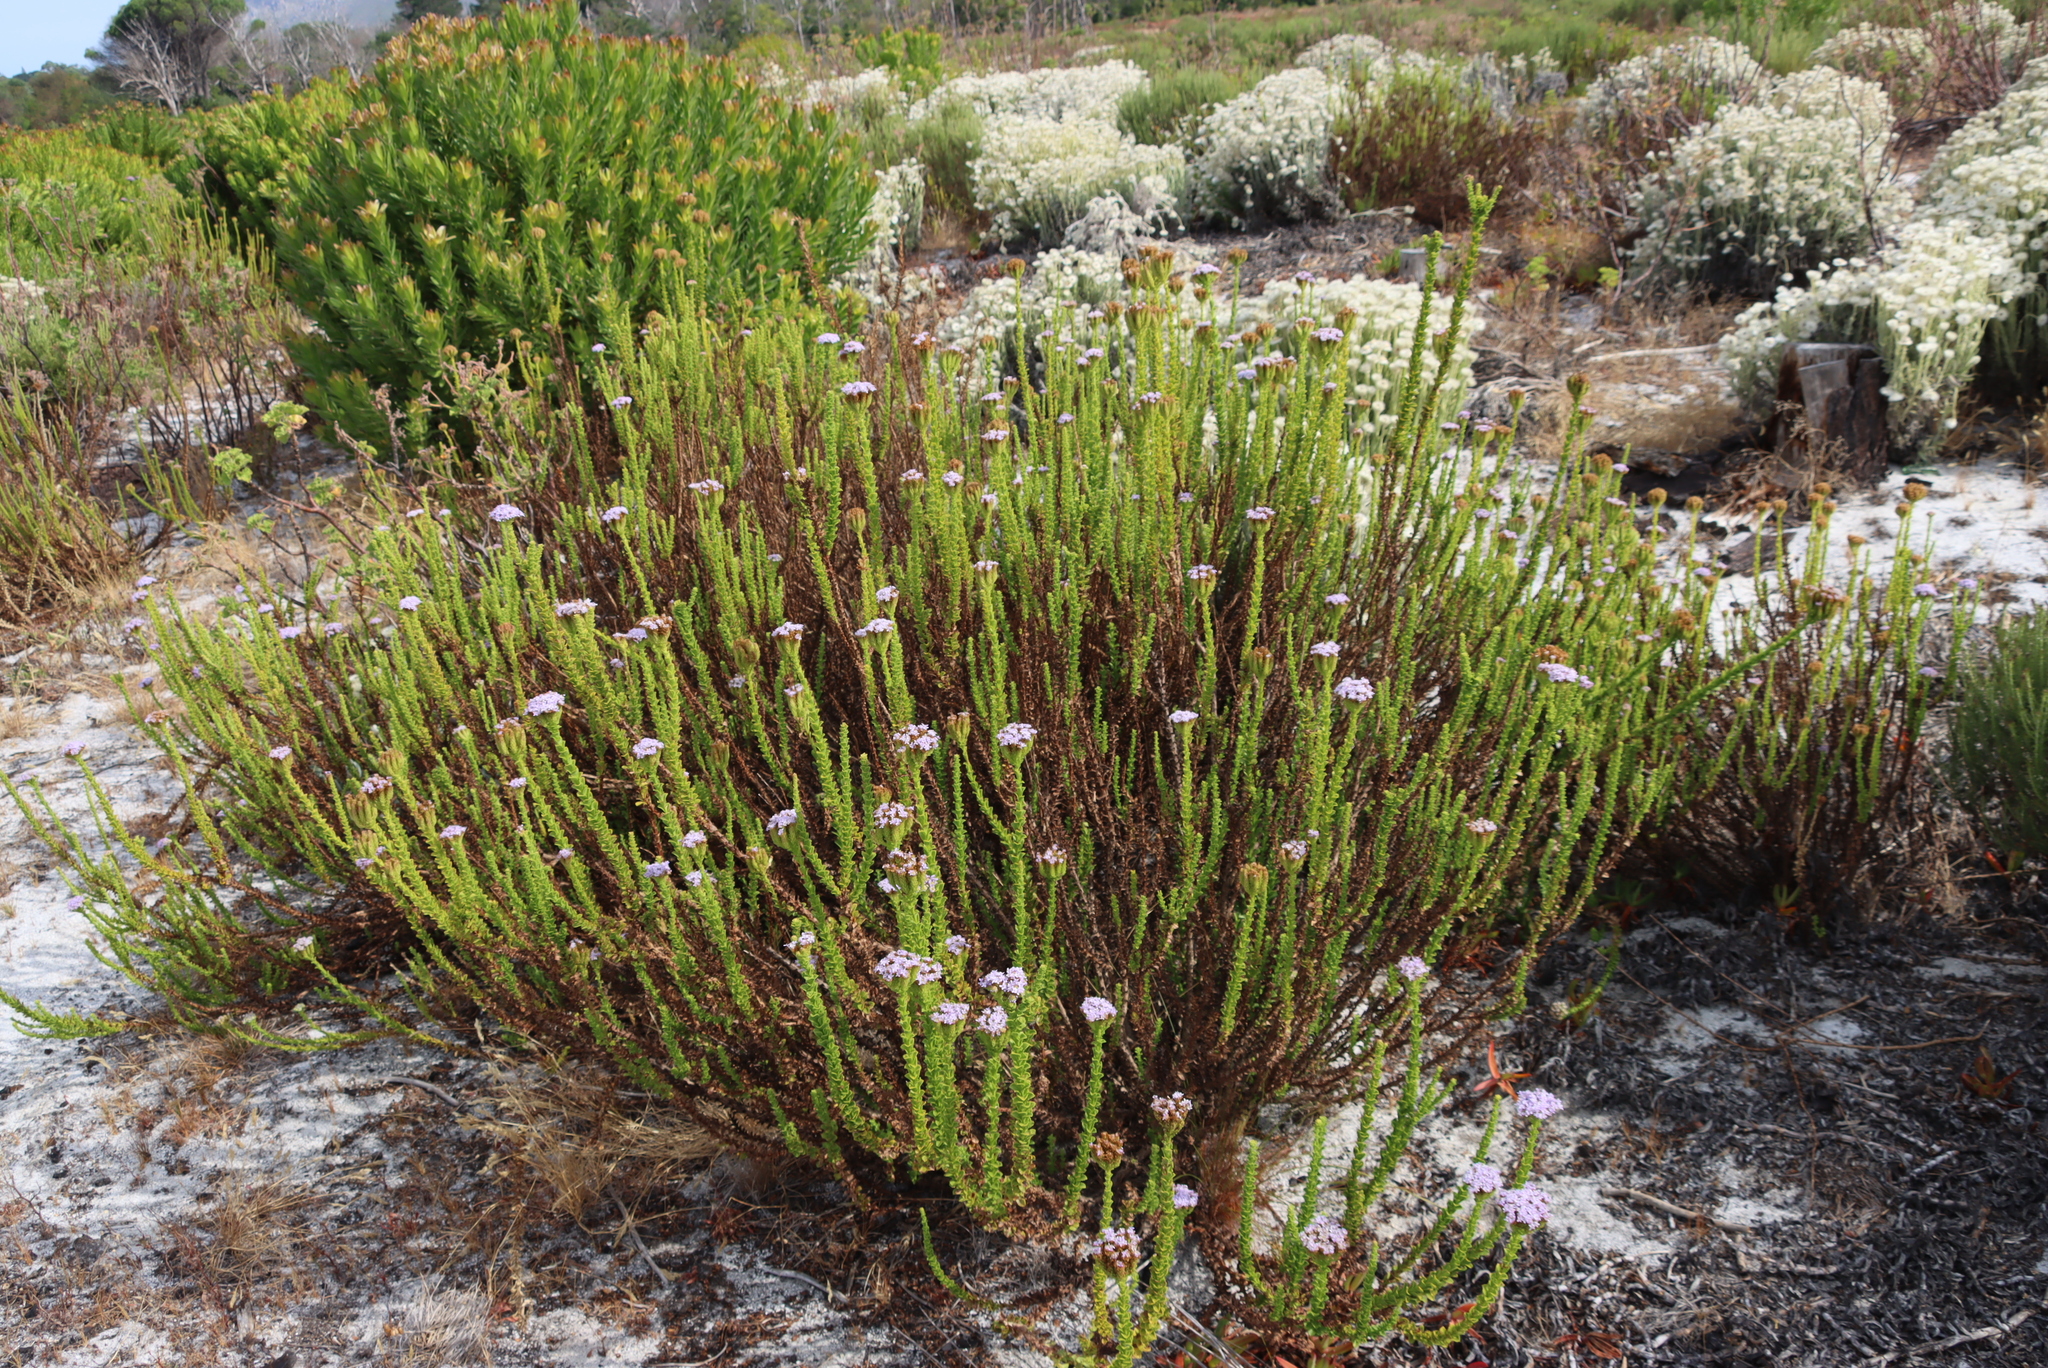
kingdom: Plantae
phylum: Tracheophyta
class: Magnoliopsida
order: Lamiales
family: Scrophulariaceae
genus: Pseudoselago
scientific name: Pseudoselago serrata
